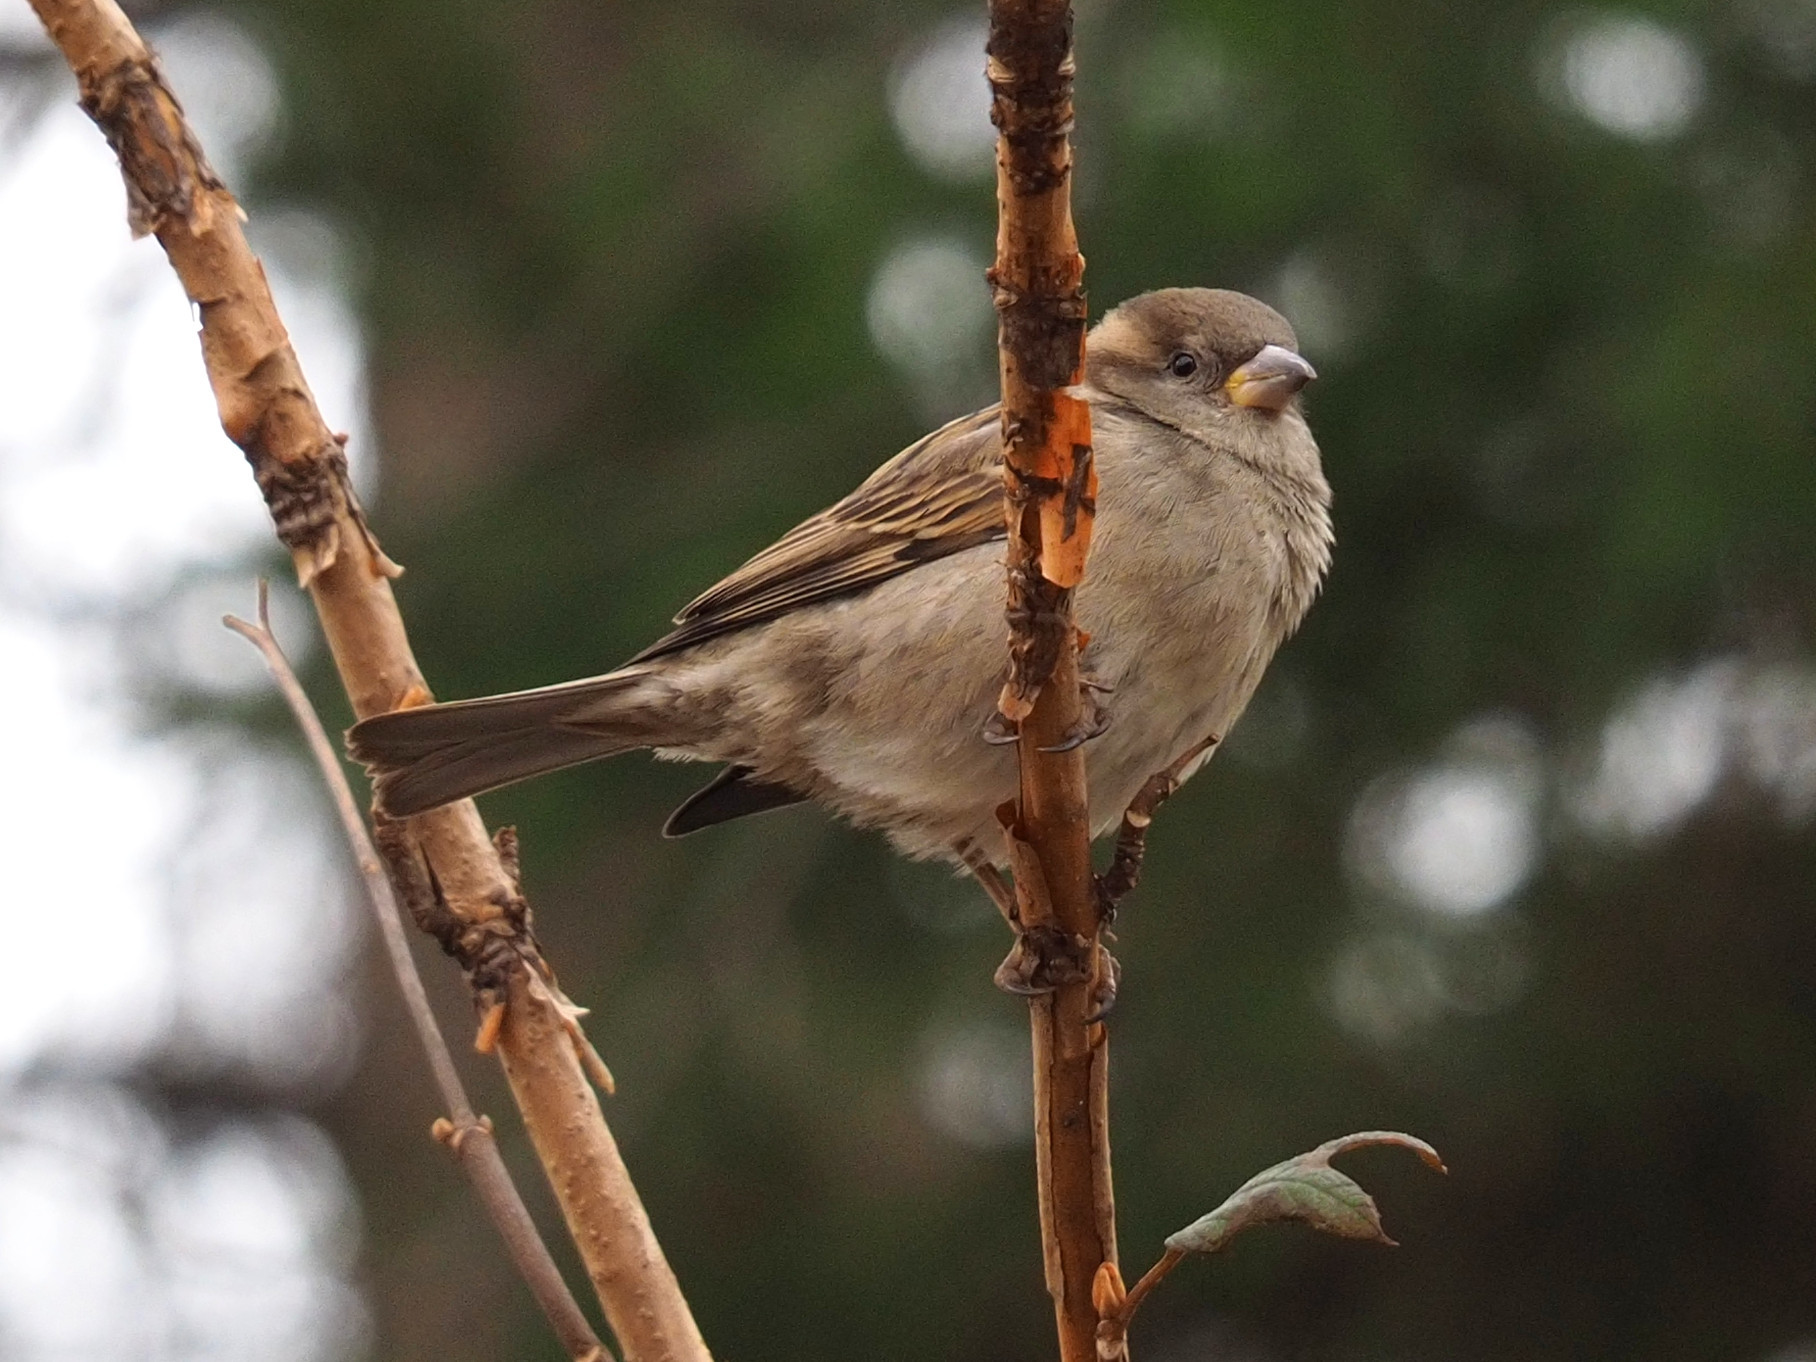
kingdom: Animalia
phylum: Chordata
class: Aves
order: Passeriformes
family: Passeridae
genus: Passer
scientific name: Passer domesticus
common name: House sparrow
